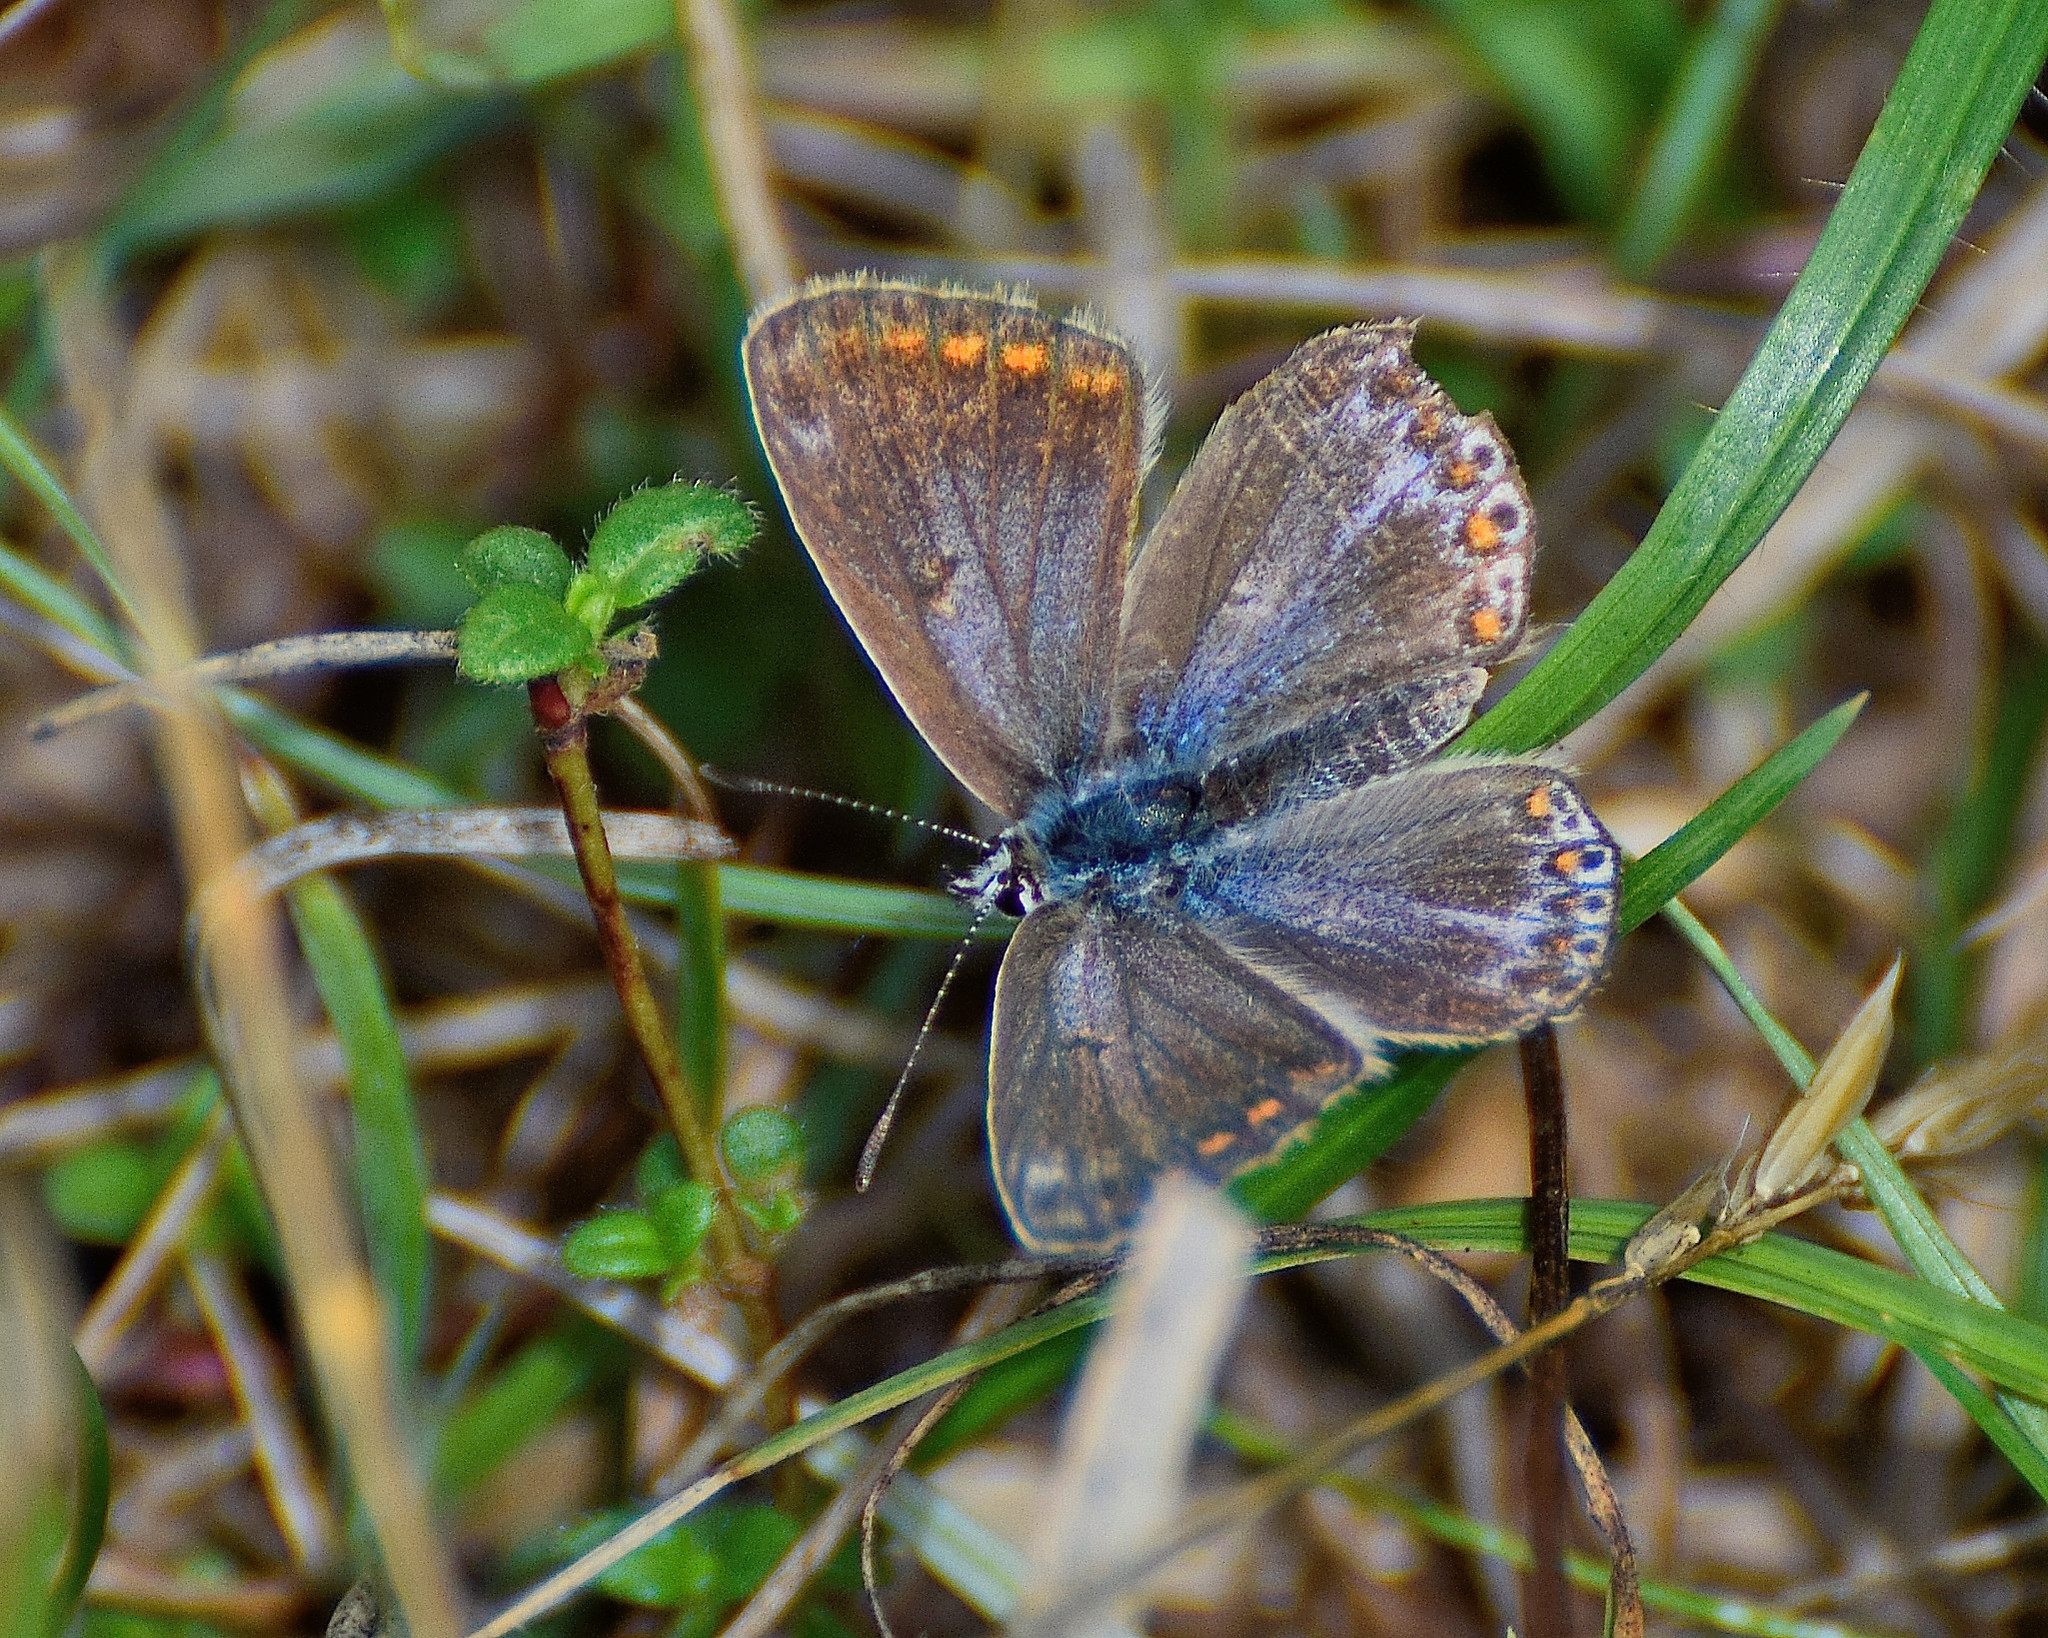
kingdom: Animalia
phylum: Arthropoda
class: Insecta
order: Lepidoptera
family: Lycaenidae
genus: Polyommatus
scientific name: Polyommatus icarus
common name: Common blue
